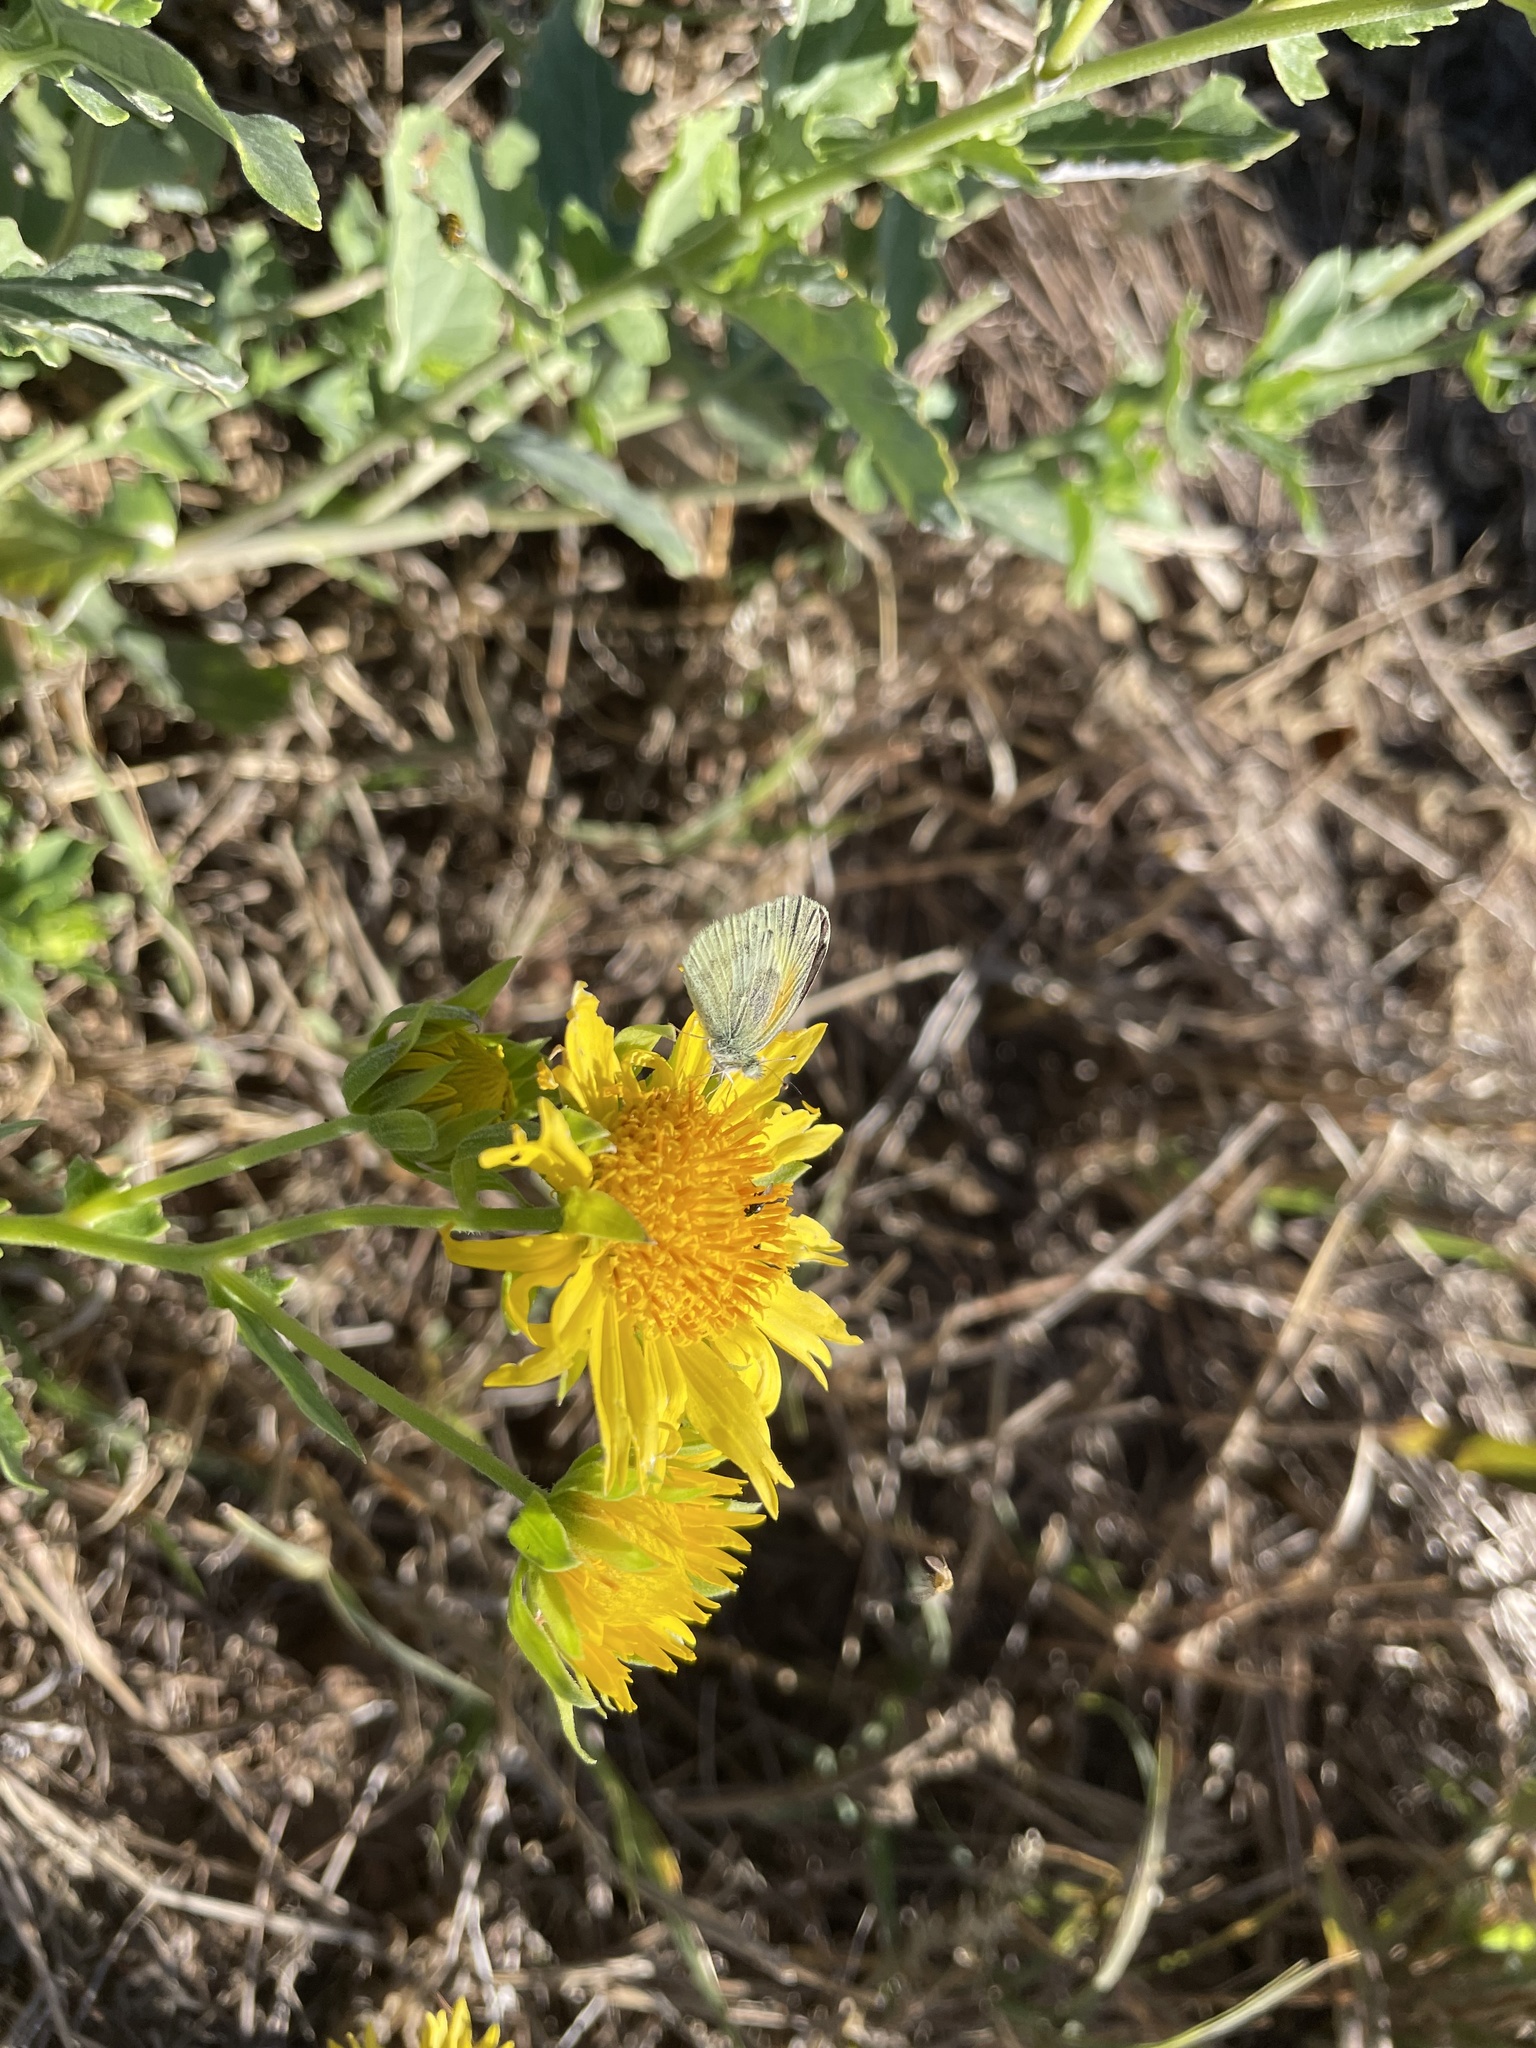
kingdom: Animalia
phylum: Arthropoda
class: Insecta
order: Lepidoptera
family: Pieridae
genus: Nathalis
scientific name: Nathalis iole
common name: Dainty sulphur
